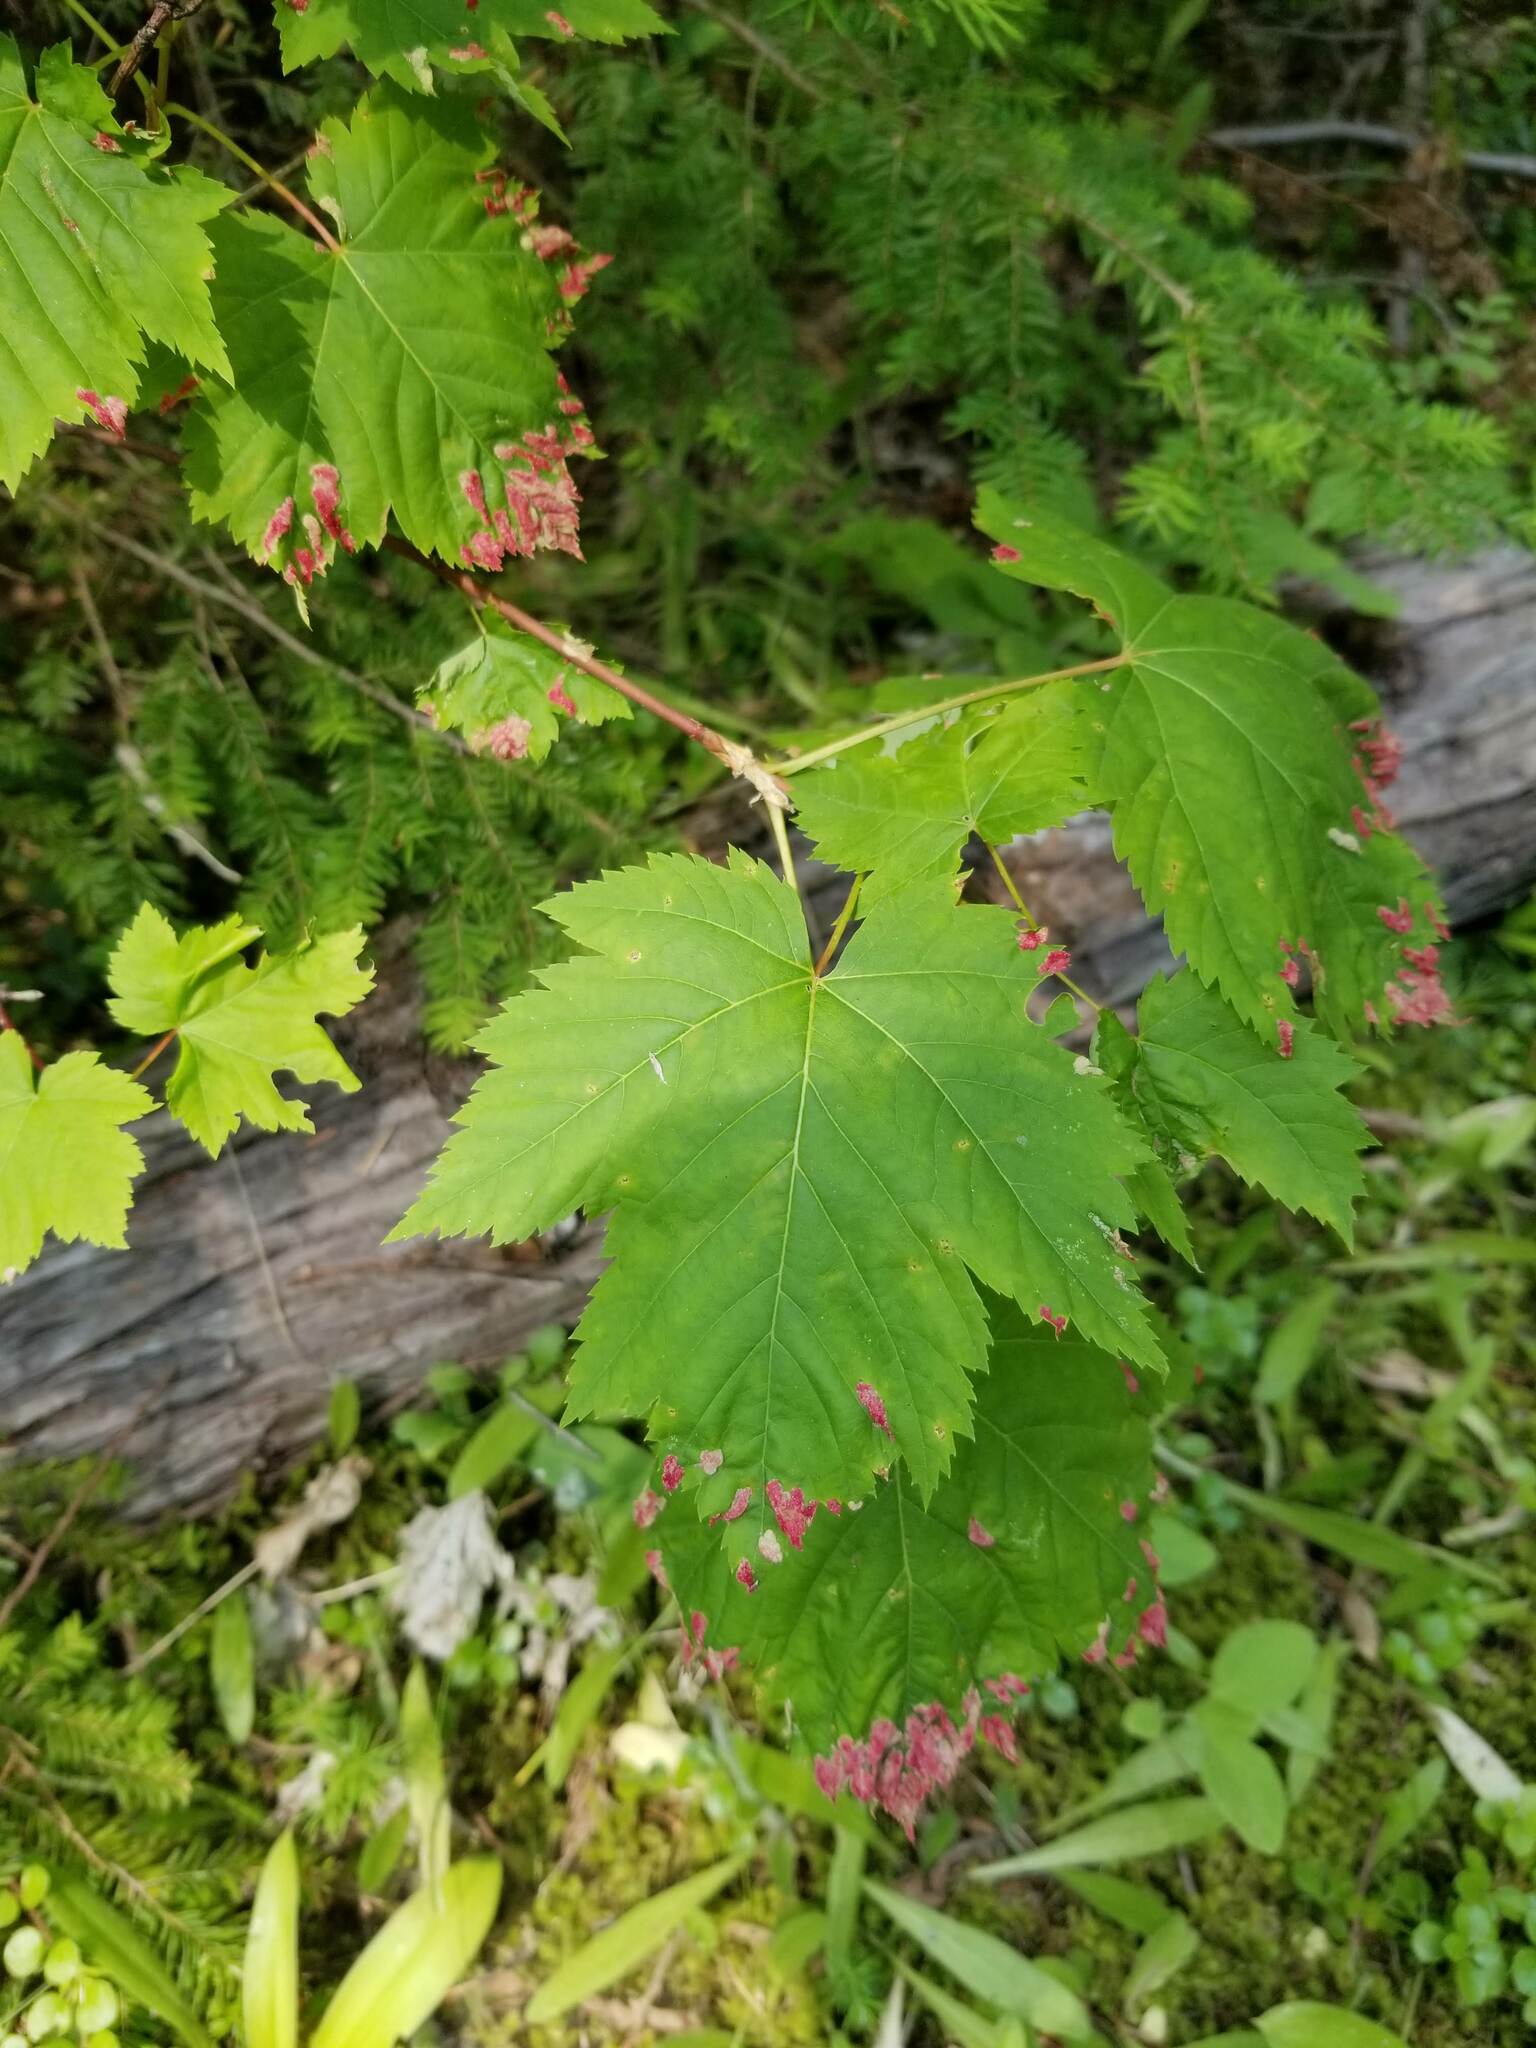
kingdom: Animalia
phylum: Arthropoda
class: Arachnida
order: Trombidiformes
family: Eriophyidae
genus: Aceria
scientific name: Aceria
